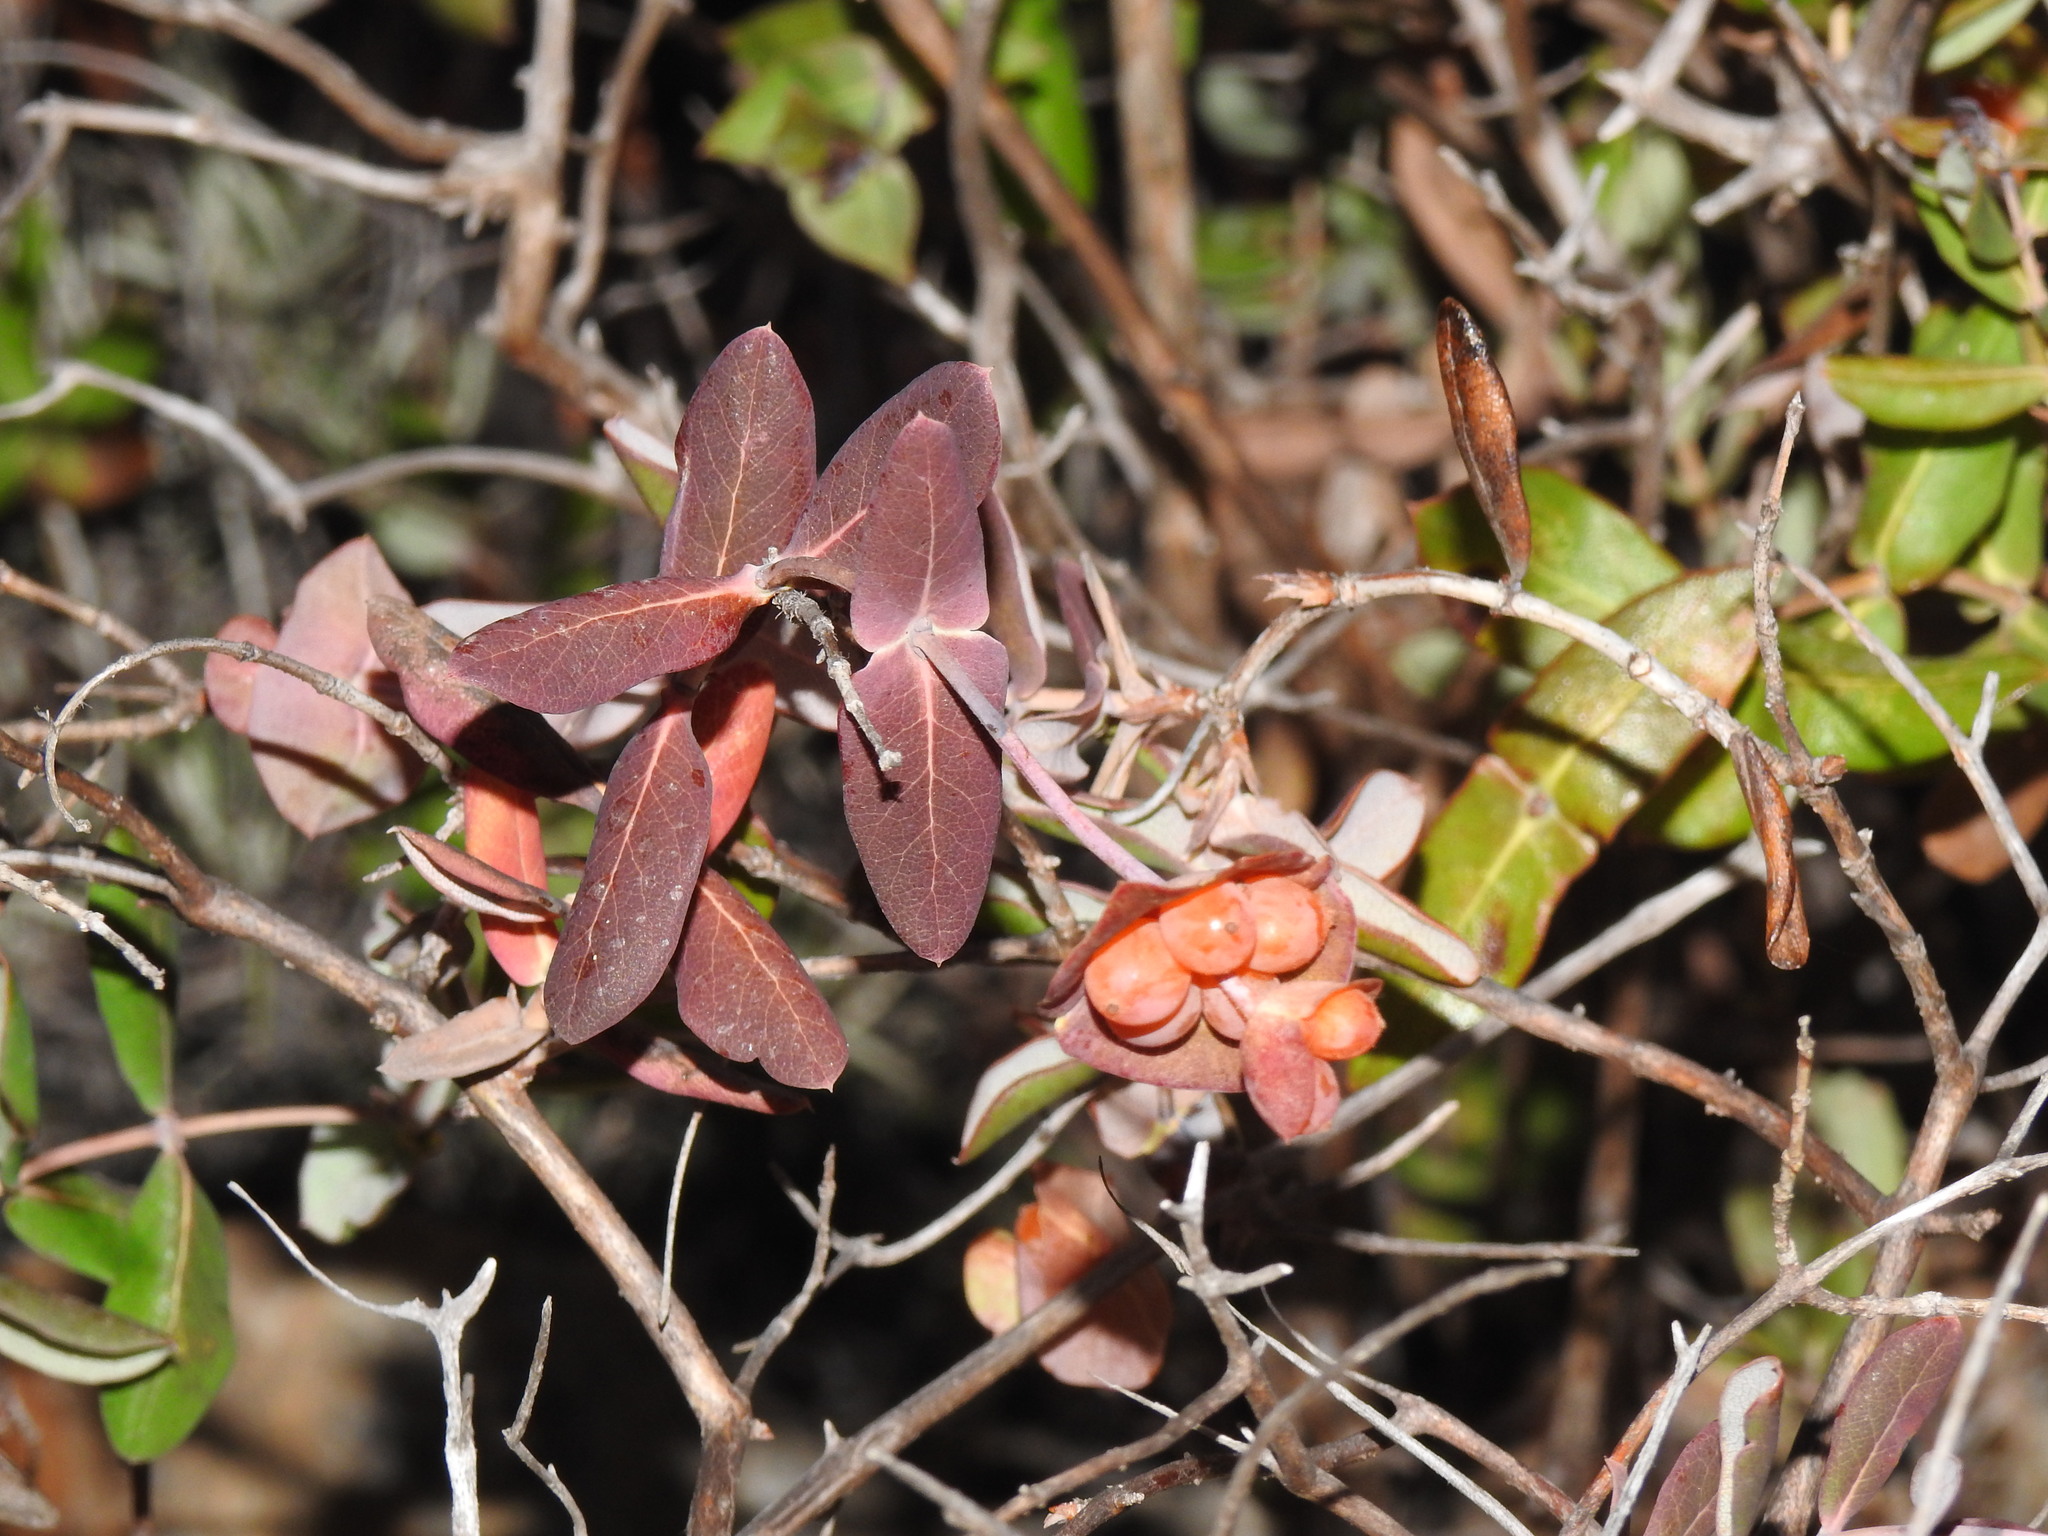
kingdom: Plantae
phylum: Tracheophyta
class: Magnoliopsida
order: Dipsacales
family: Caprifoliaceae
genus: Lonicera
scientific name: Lonicera implexa
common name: Minorca honeysuckle
